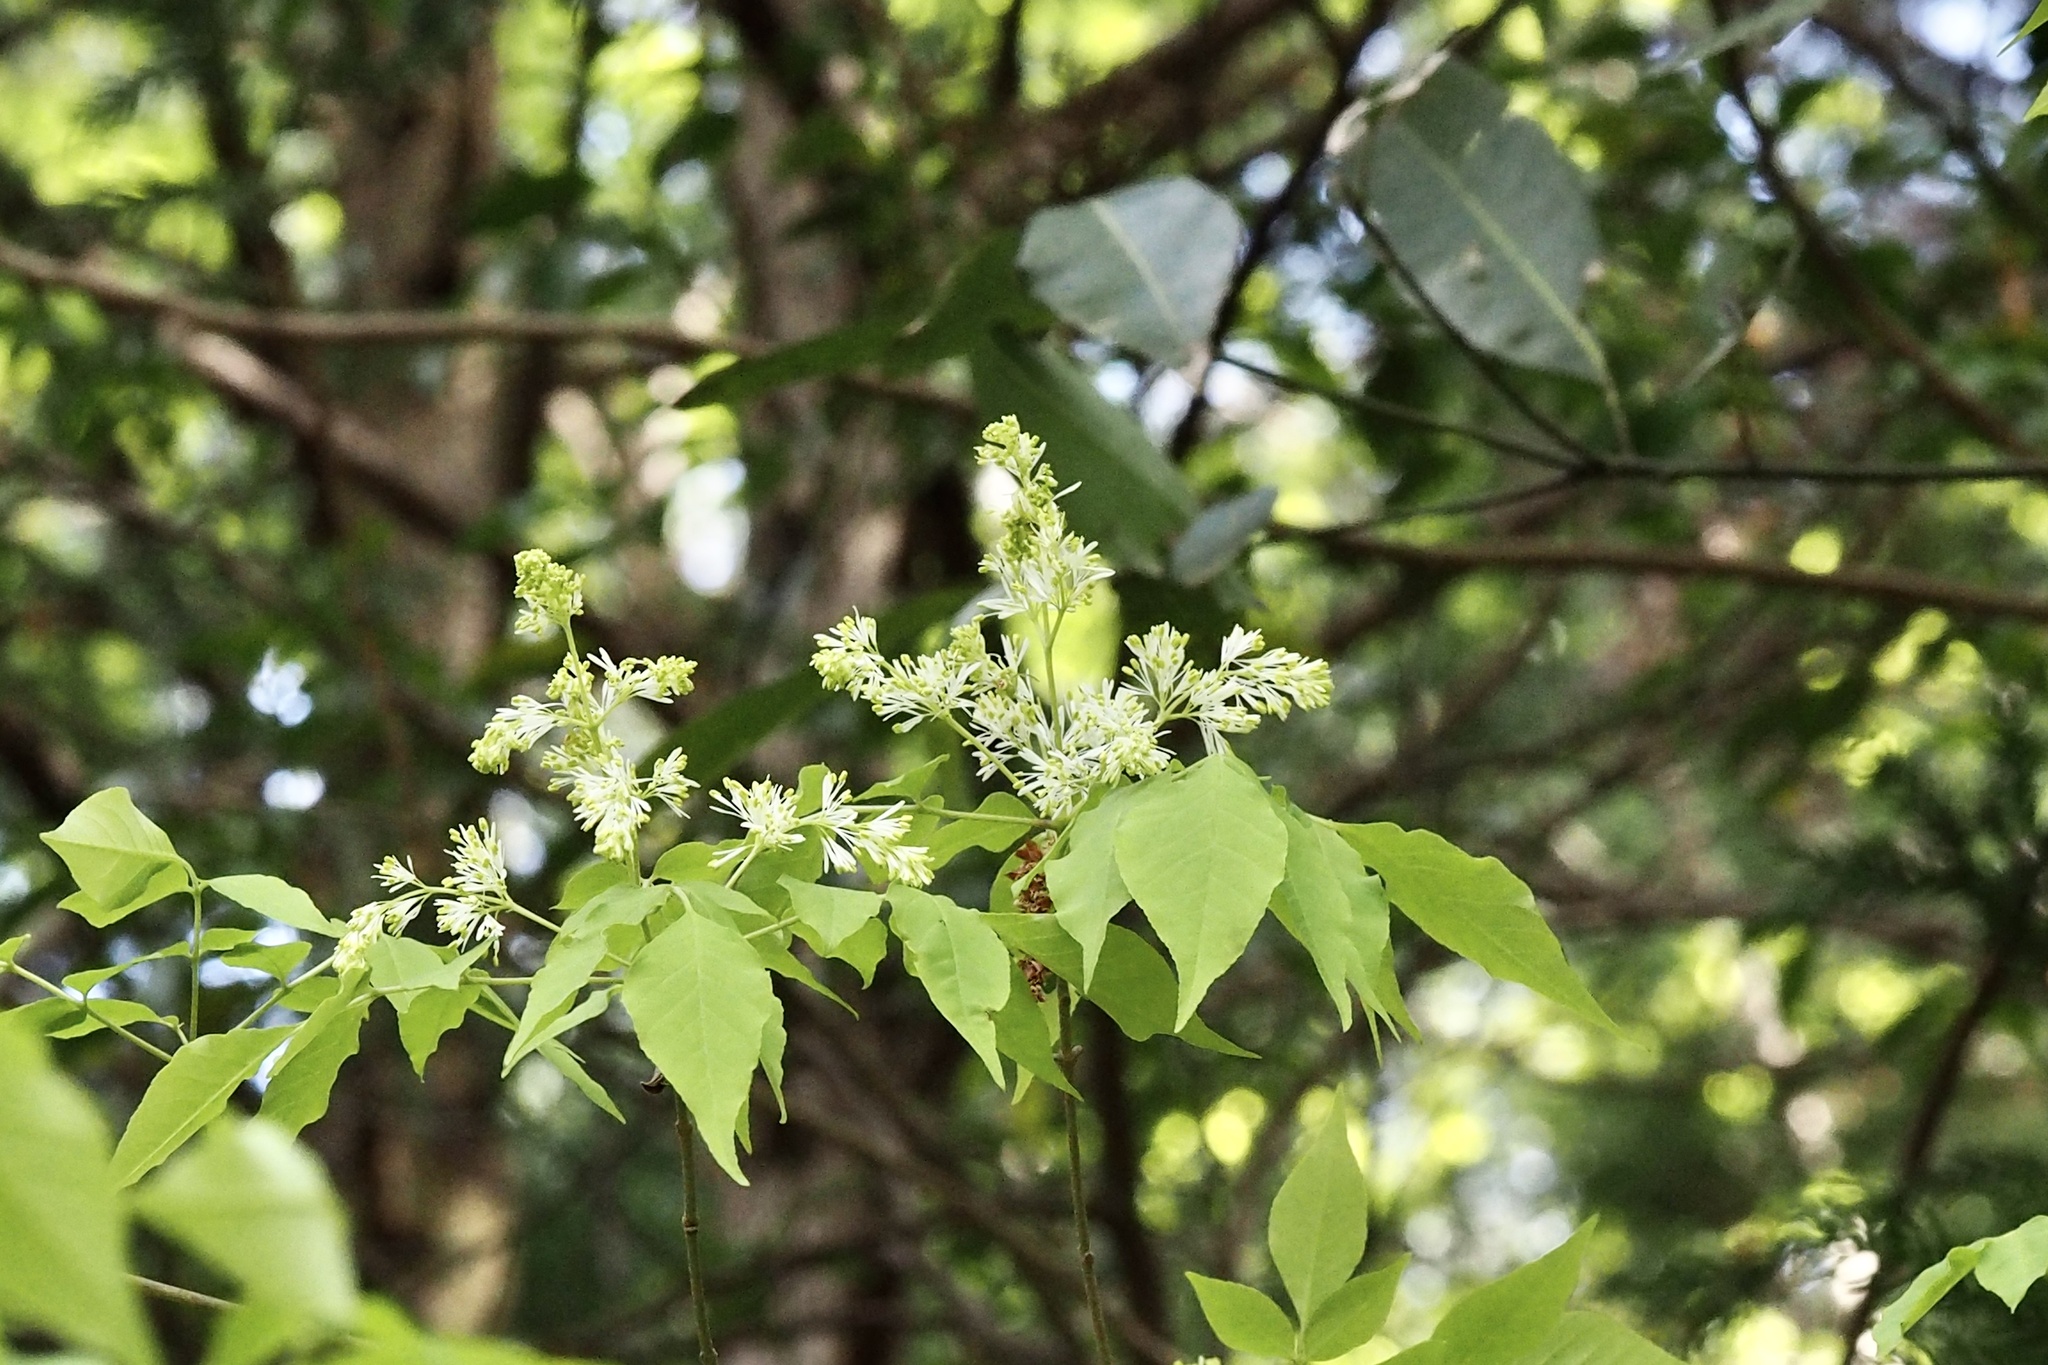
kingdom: Plantae
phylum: Tracheophyta
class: Magnoliopsida
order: Lamiales
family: Oleaceae
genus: Fraxinus
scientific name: Fraxinus sieboldiana
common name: Chinese flowering ash
